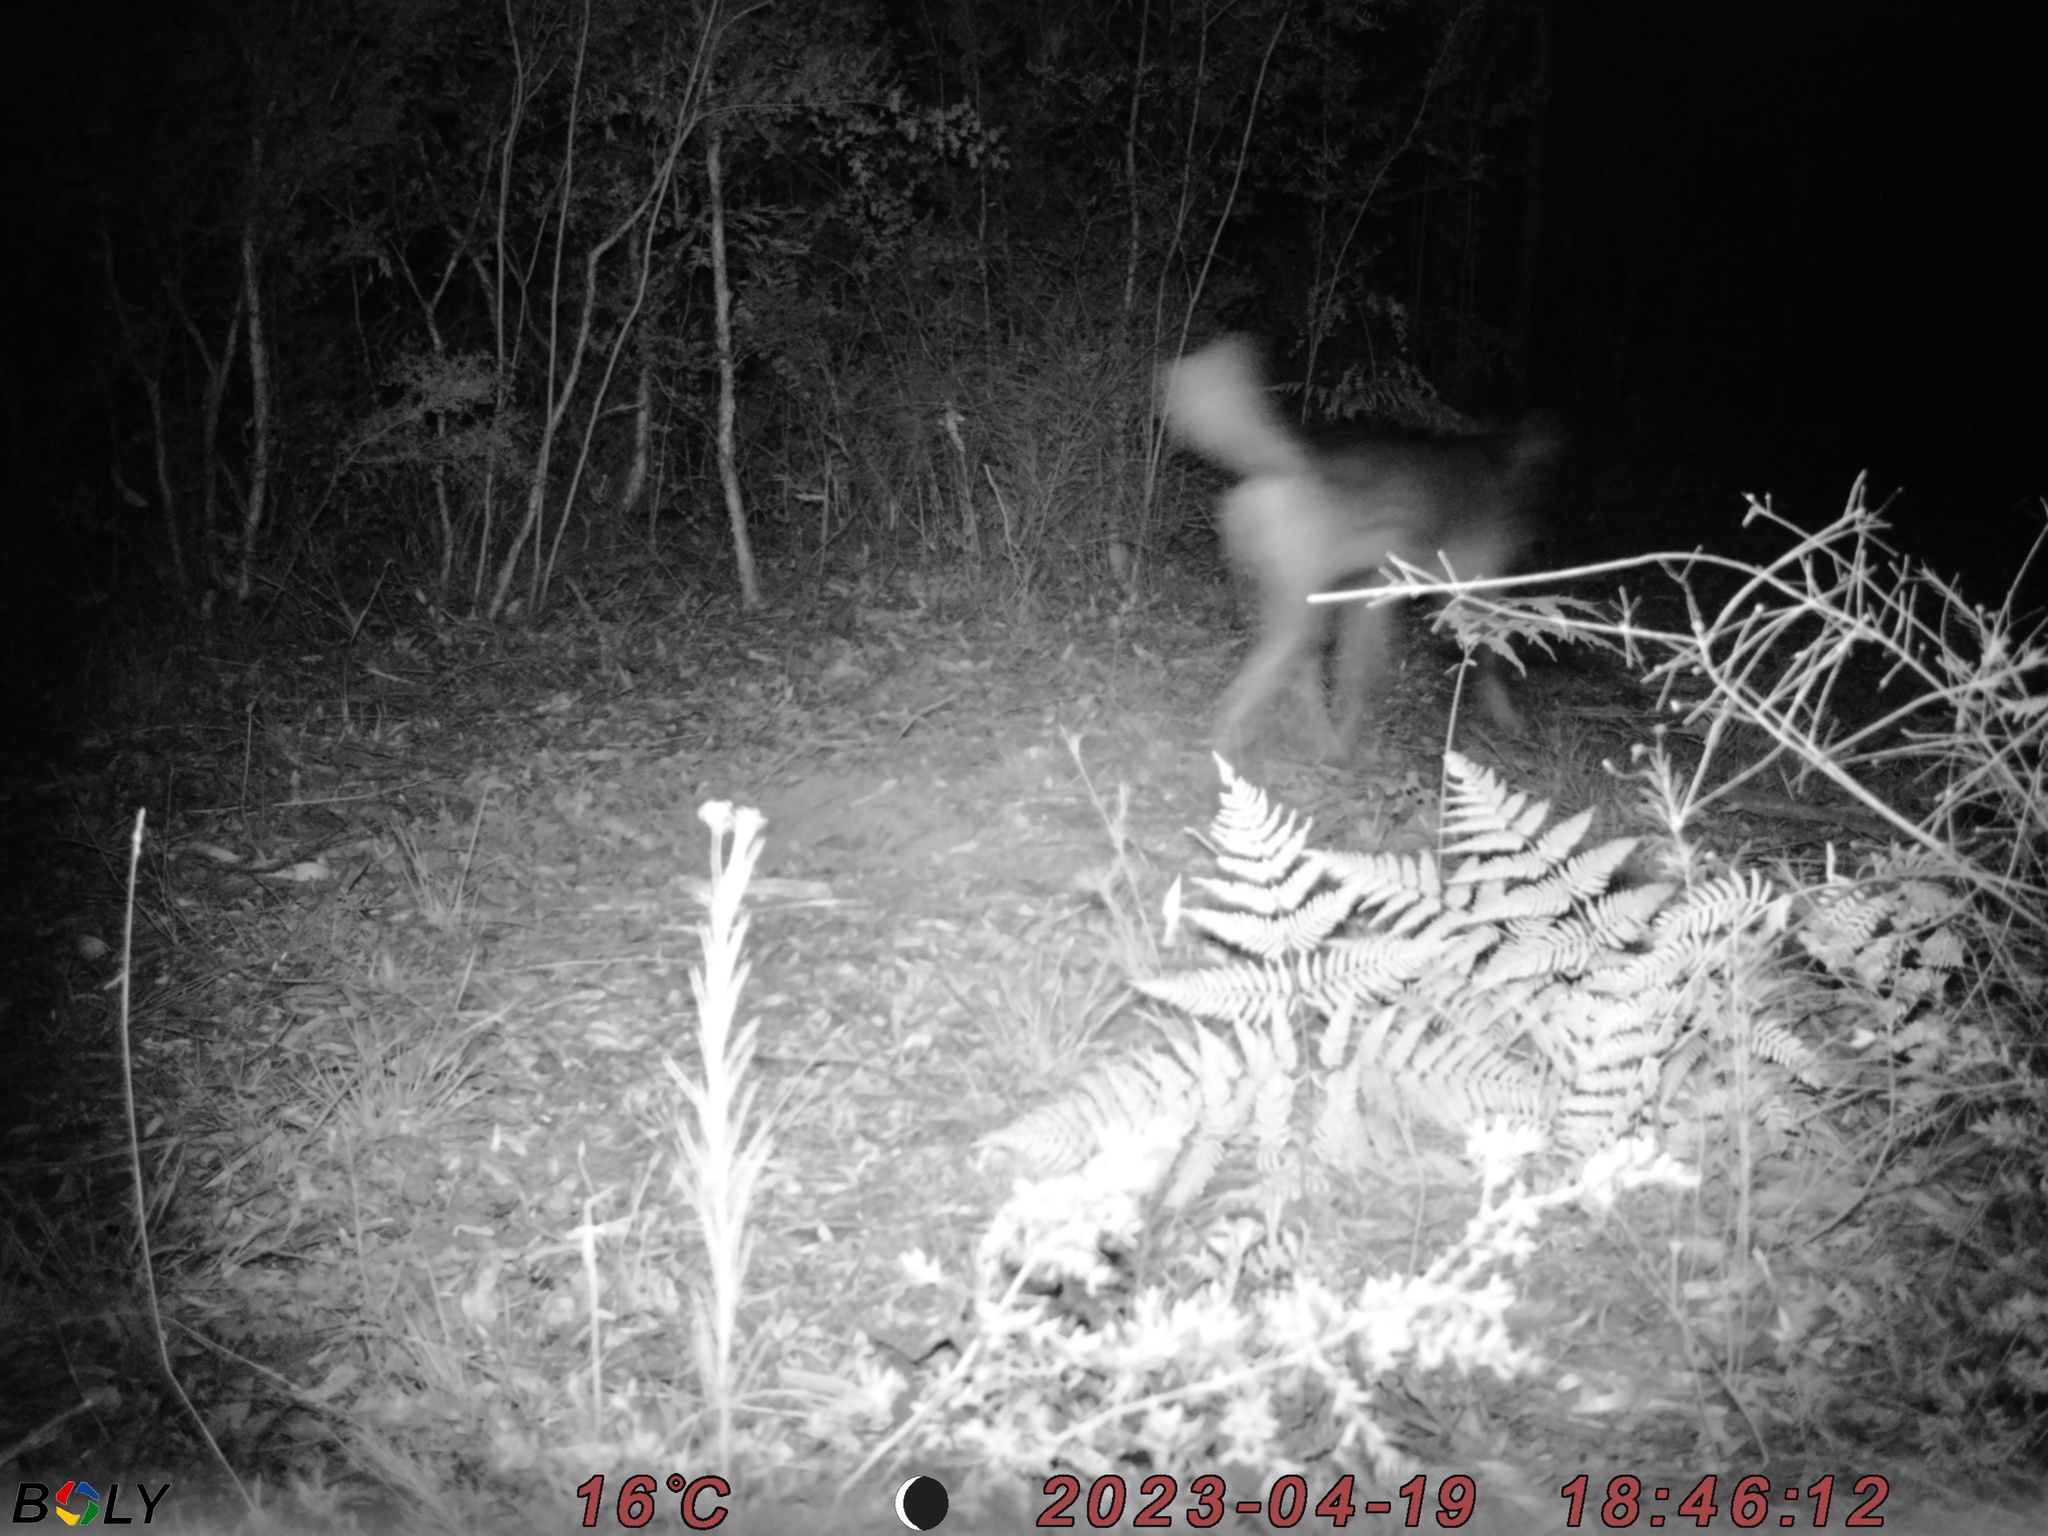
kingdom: Animalia
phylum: Chordata
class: Mammalia
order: Carnivora
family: Canidae
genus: Canis
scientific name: Canis lupus
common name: Gray wolf
